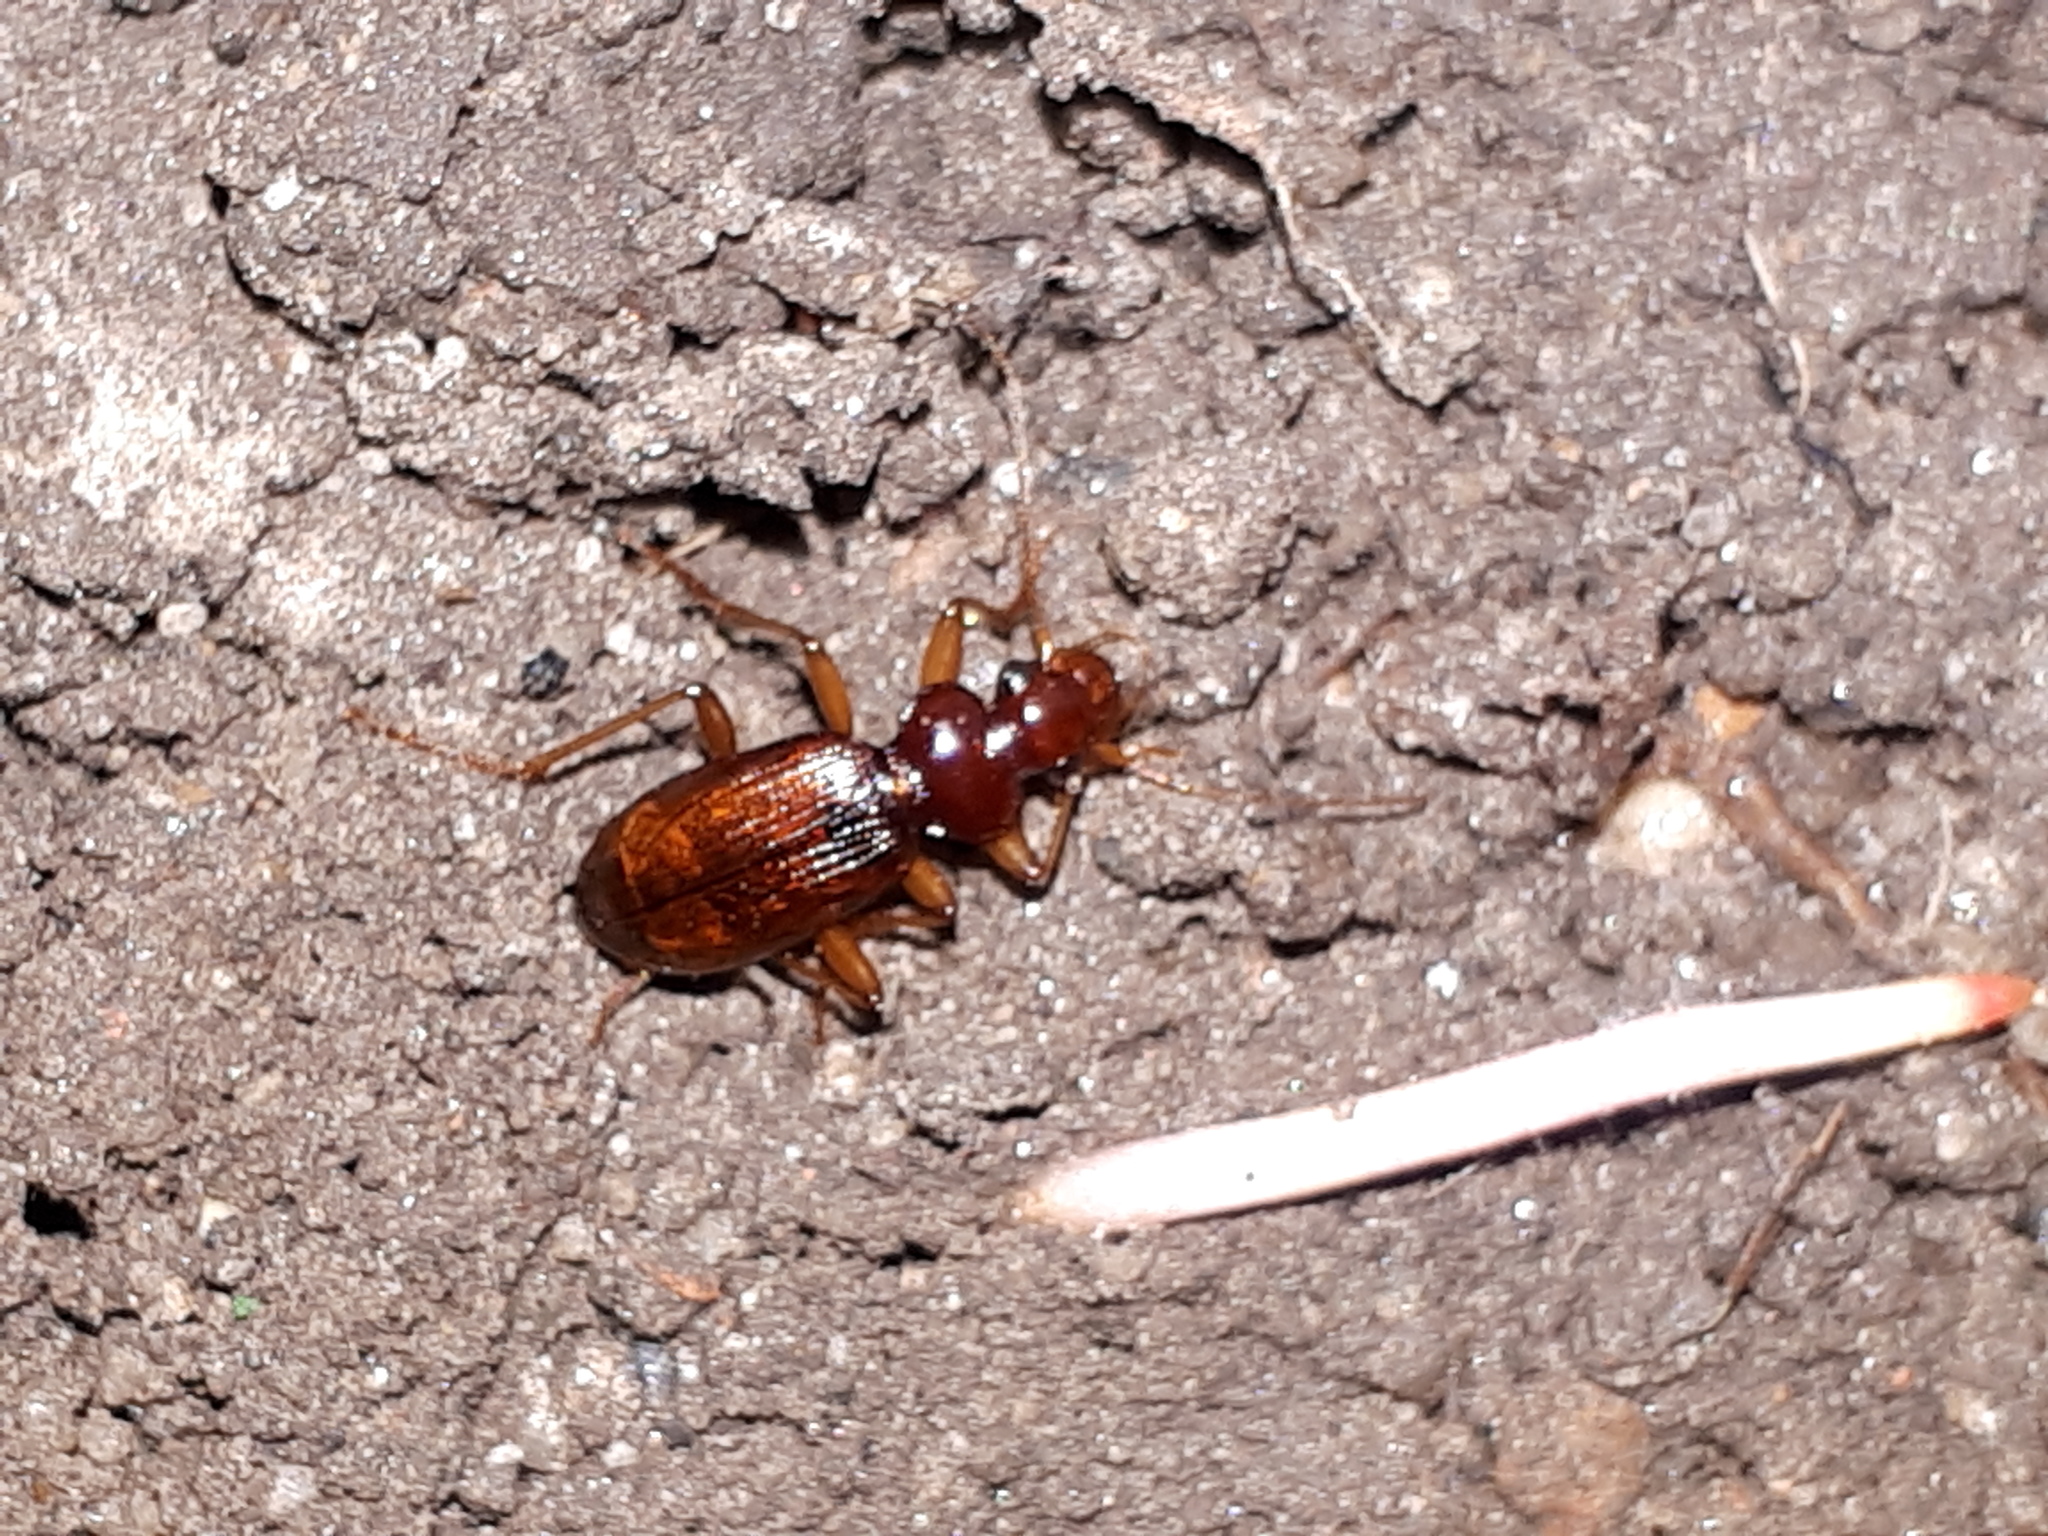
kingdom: Animalia
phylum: Arthropoda
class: Insecta
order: Coleoptera
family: Carabidae
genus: Leistus
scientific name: Leistus ferrugineus
